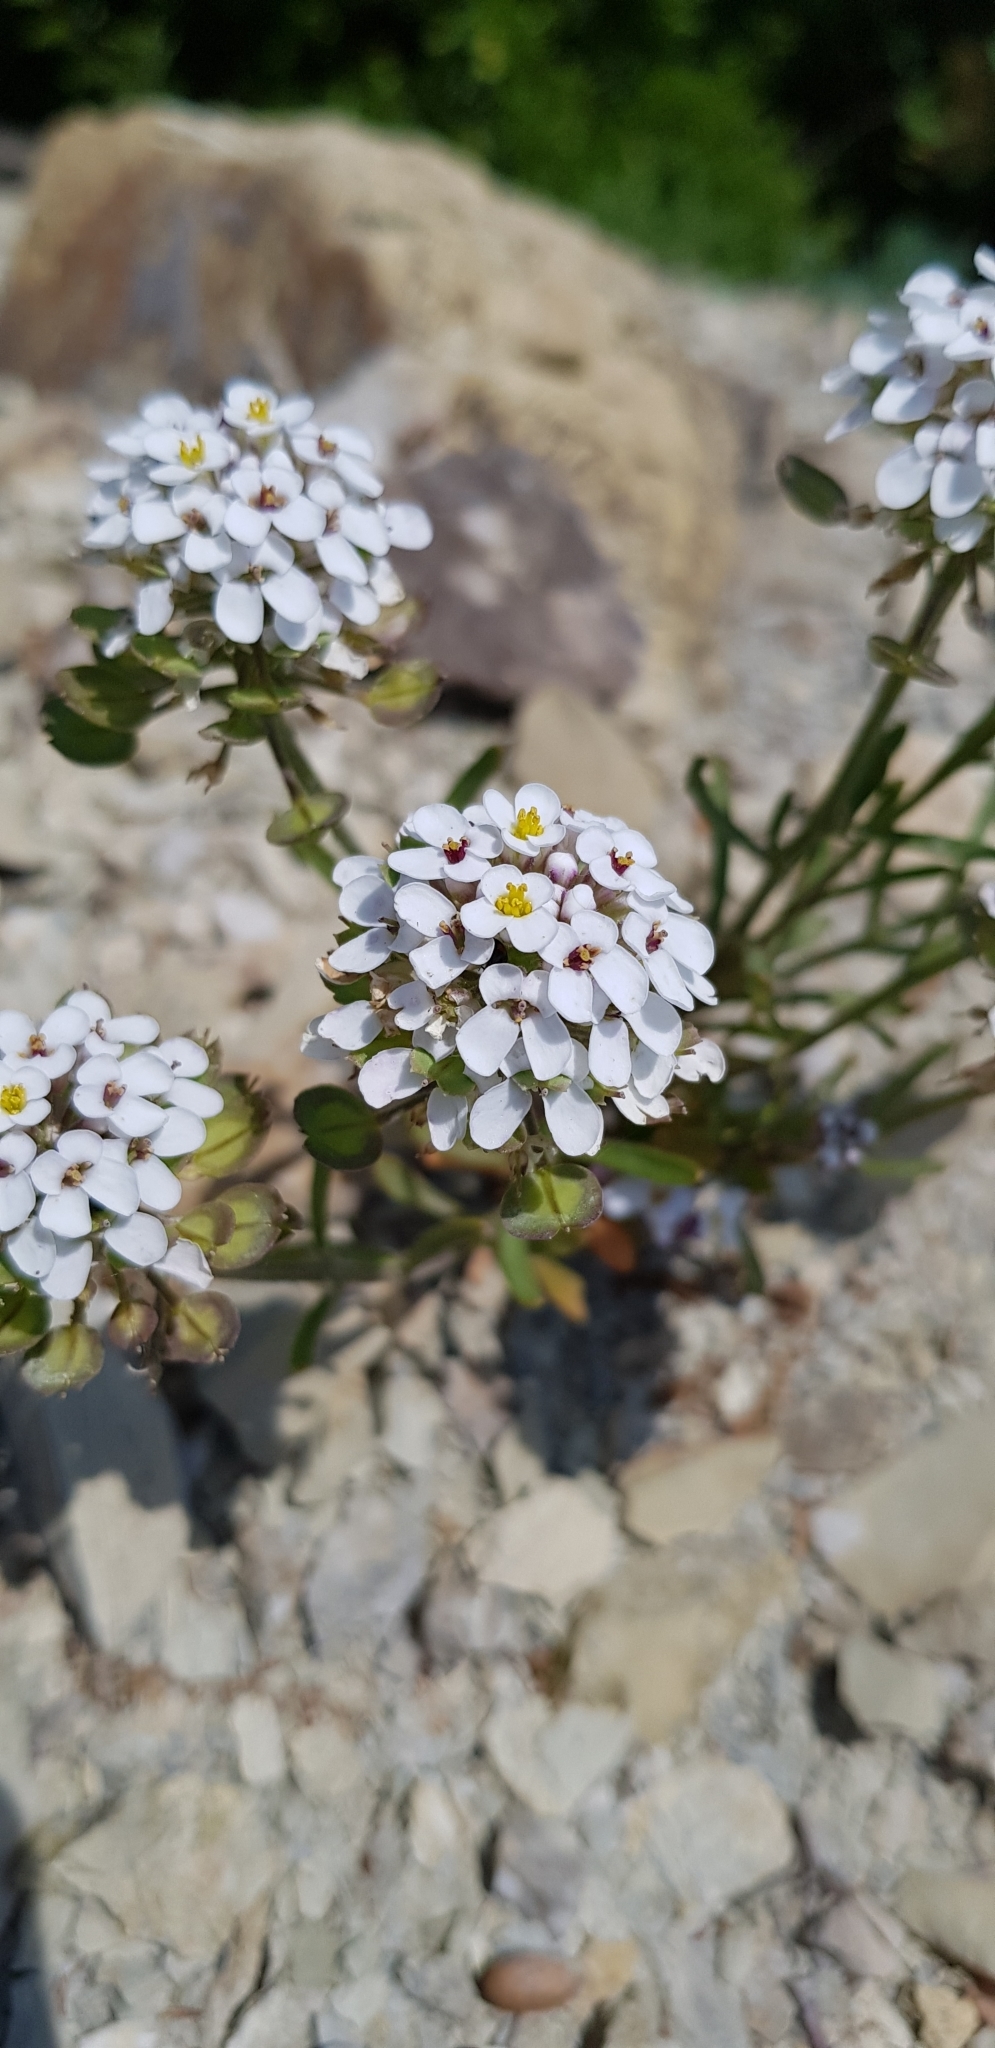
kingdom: Plantae
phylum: Tracheophyta
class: Magnoliopsida
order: Brassicales
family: Brassicaceae
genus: Iberis
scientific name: Iberis simplex
